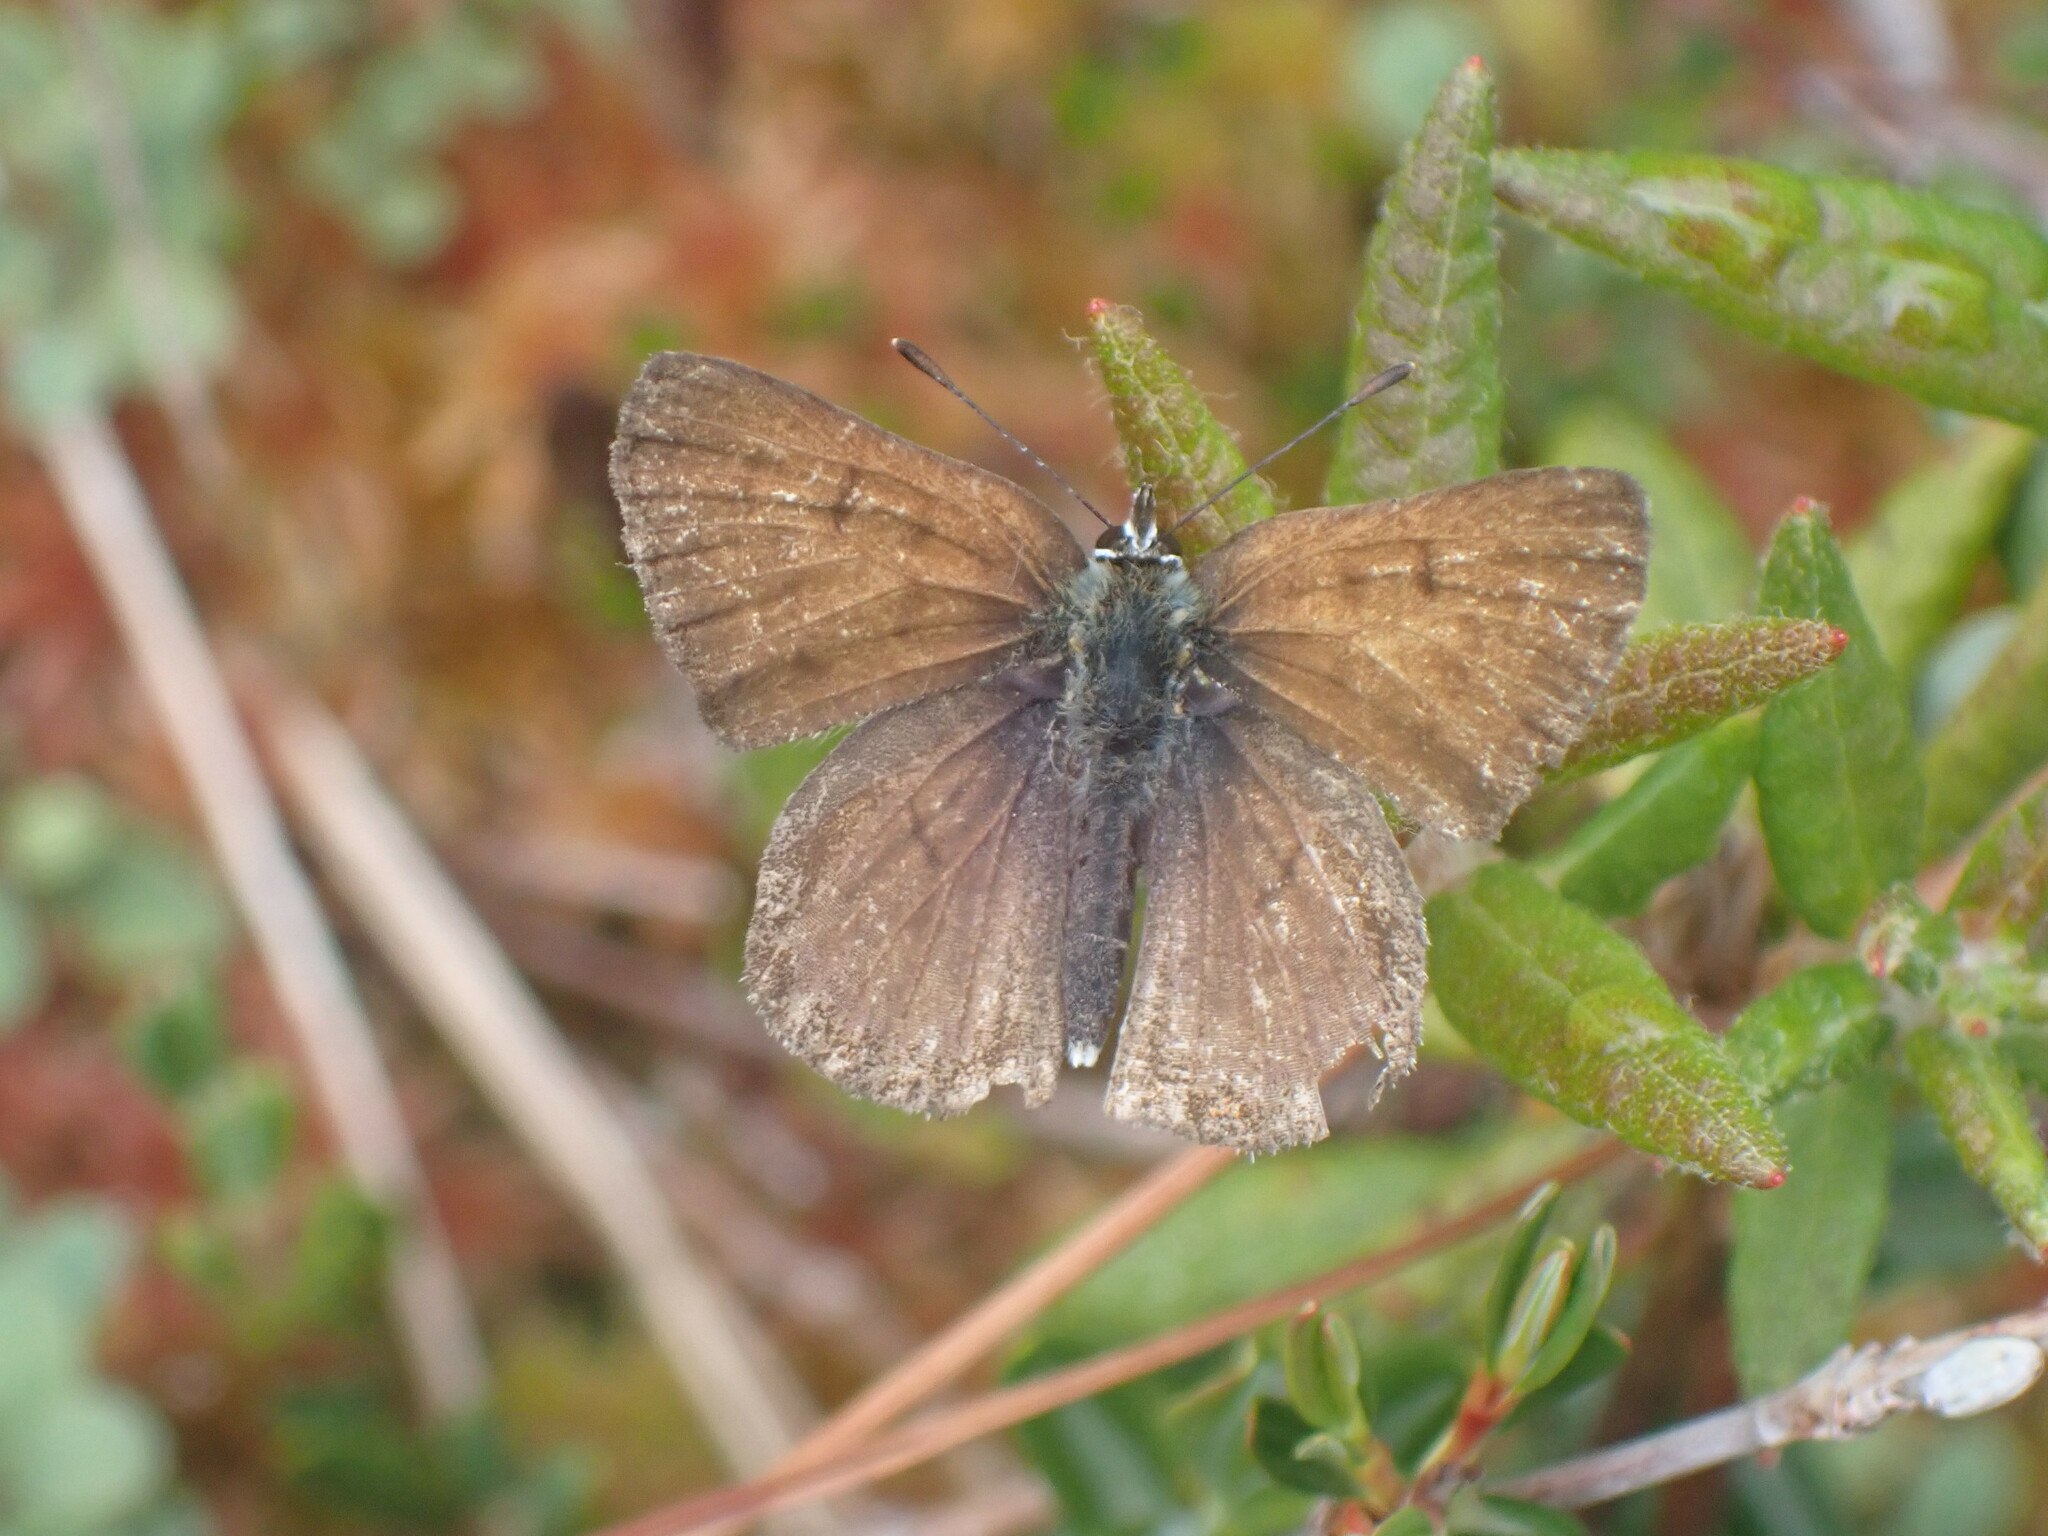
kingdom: Animalia
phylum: Arthropoda
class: Insecta
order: Lepidoptera
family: Lycaenidae
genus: Tharsalea
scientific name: Tharsalea mariposa
